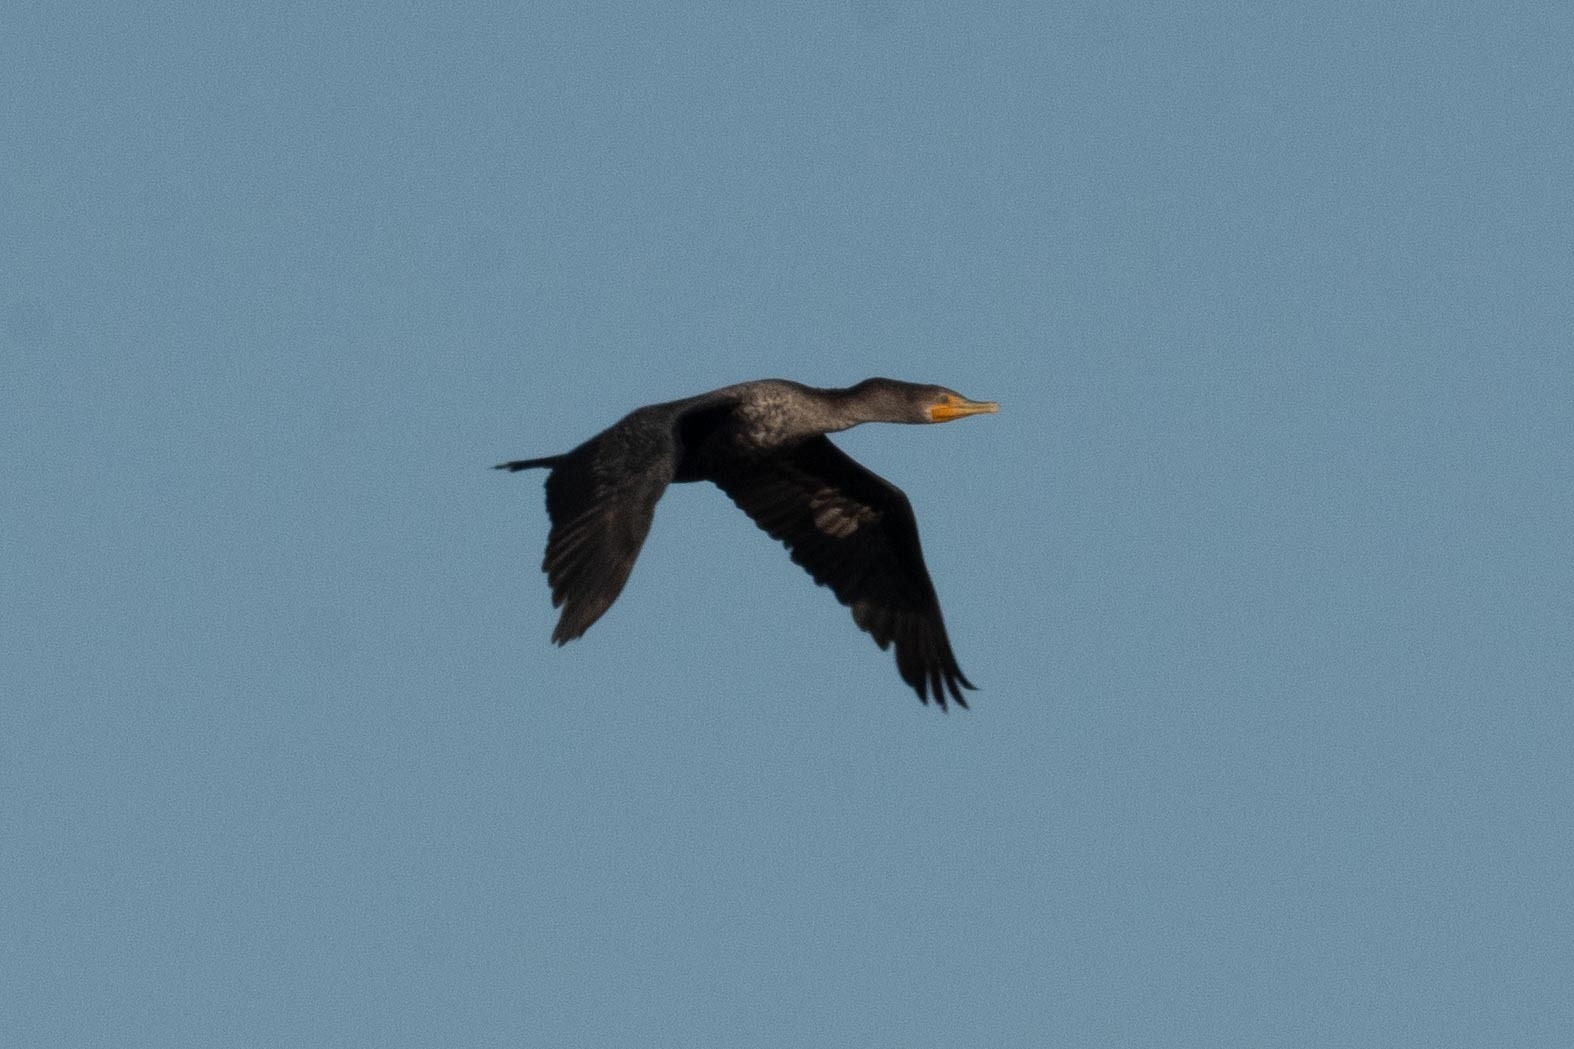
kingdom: Animalia
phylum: Chordata
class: Aves
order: Suliformes
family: Phalacrocoracidae
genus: Phalacrocorax
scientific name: Phalacrocorax auritus
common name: Double-crested cormorant
